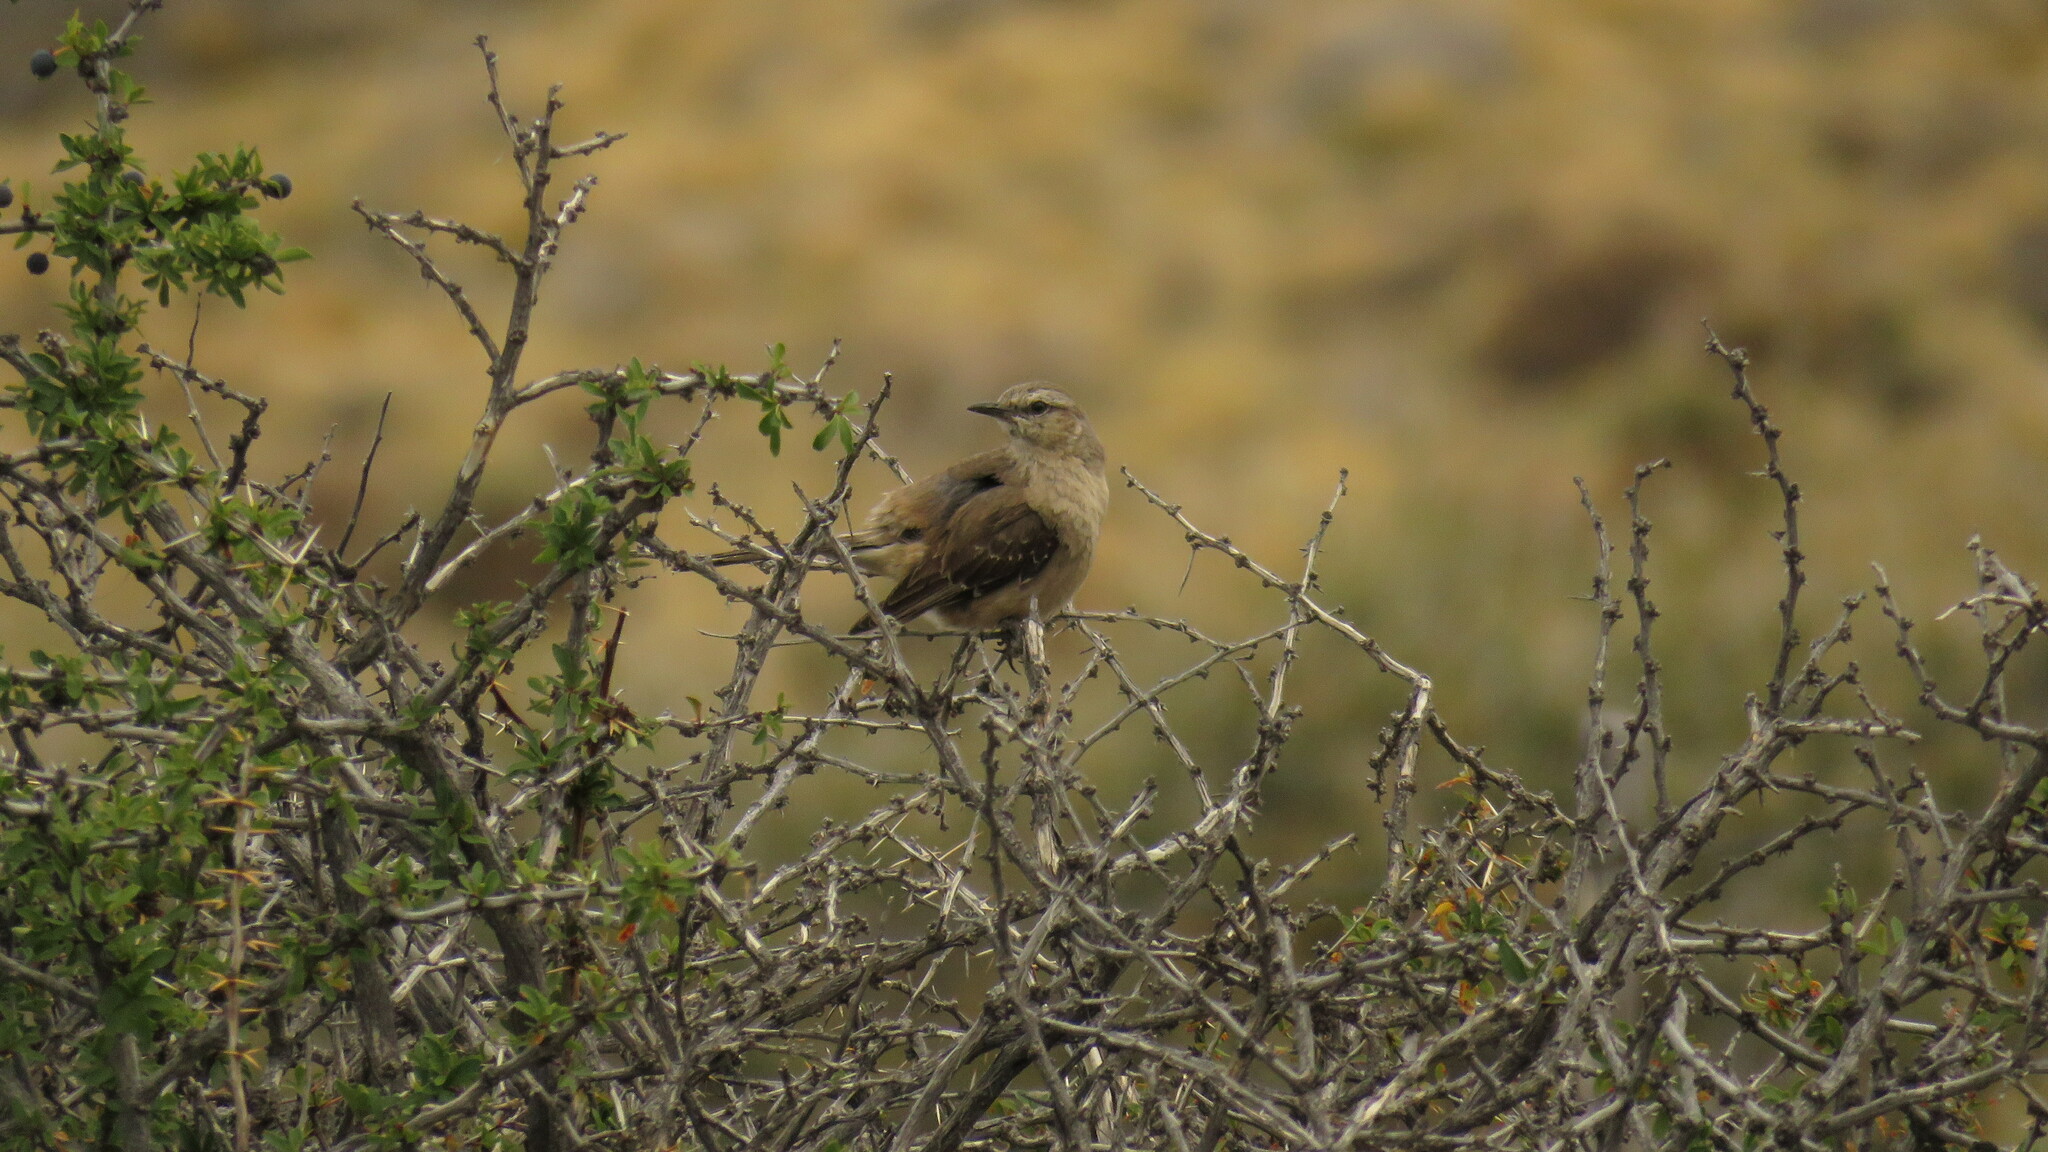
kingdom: Animalia
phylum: Chordata
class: Aves
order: Passeriformes
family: Mimidae
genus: Mimus
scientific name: Mimus patagonicus
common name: Patagonian mockingbird
